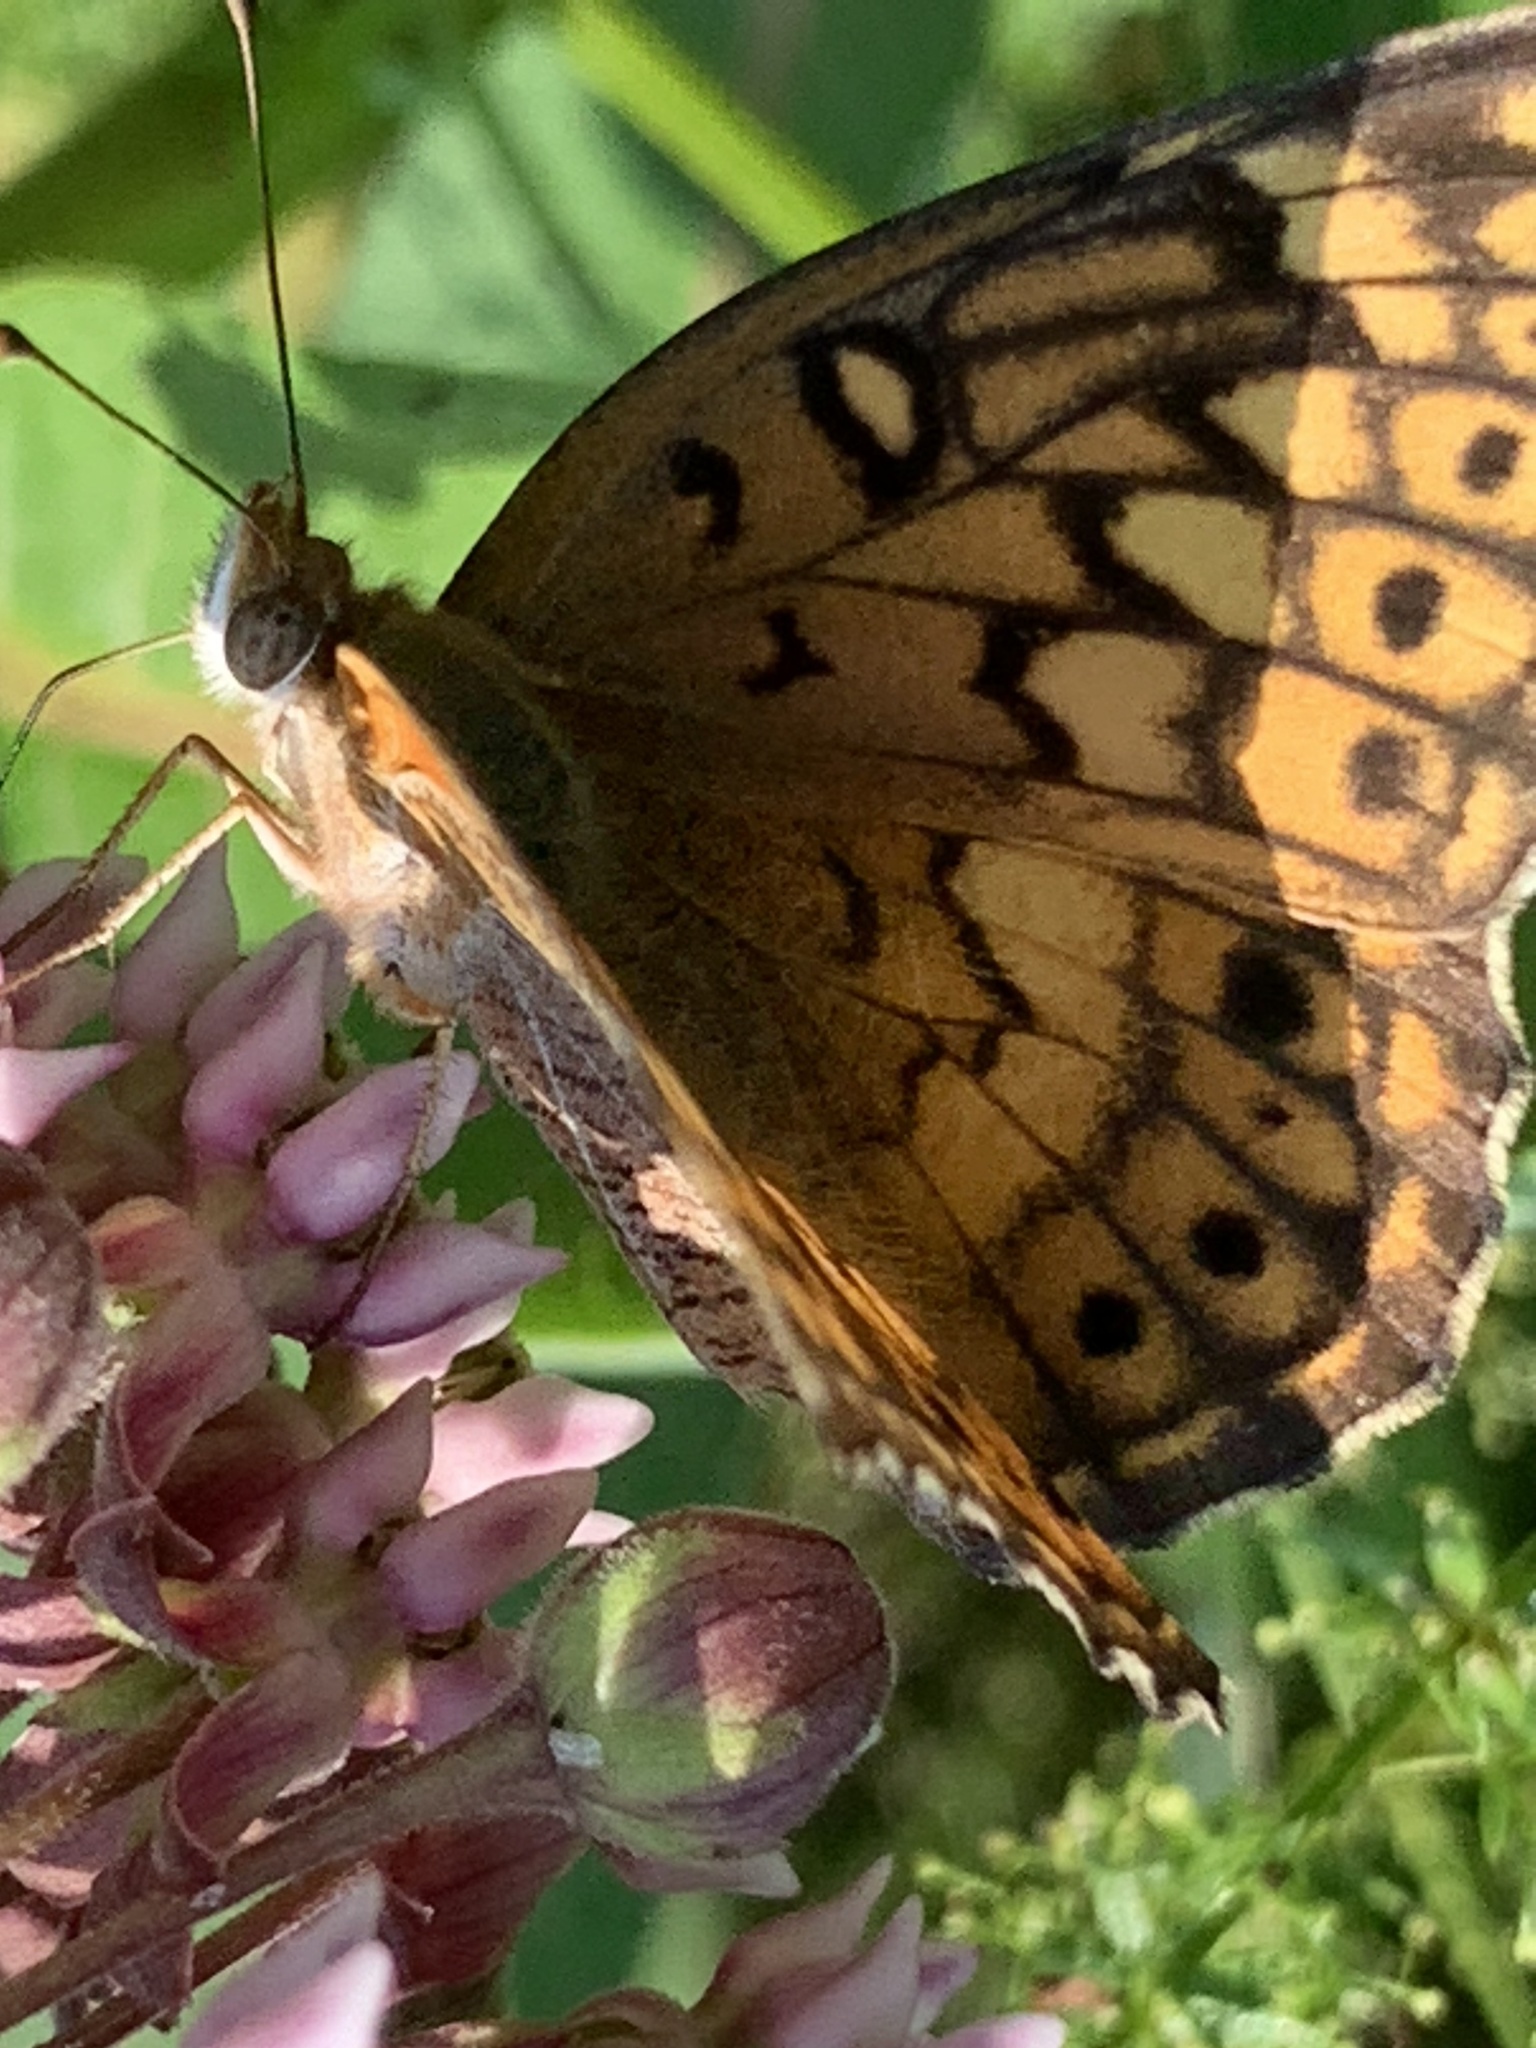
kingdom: Animalia
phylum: Arthropoda
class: Insecta
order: Lepidoptera
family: Nymphalidae
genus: Euptoieta
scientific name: Euptoieta claudia
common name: Variegated fritillary
